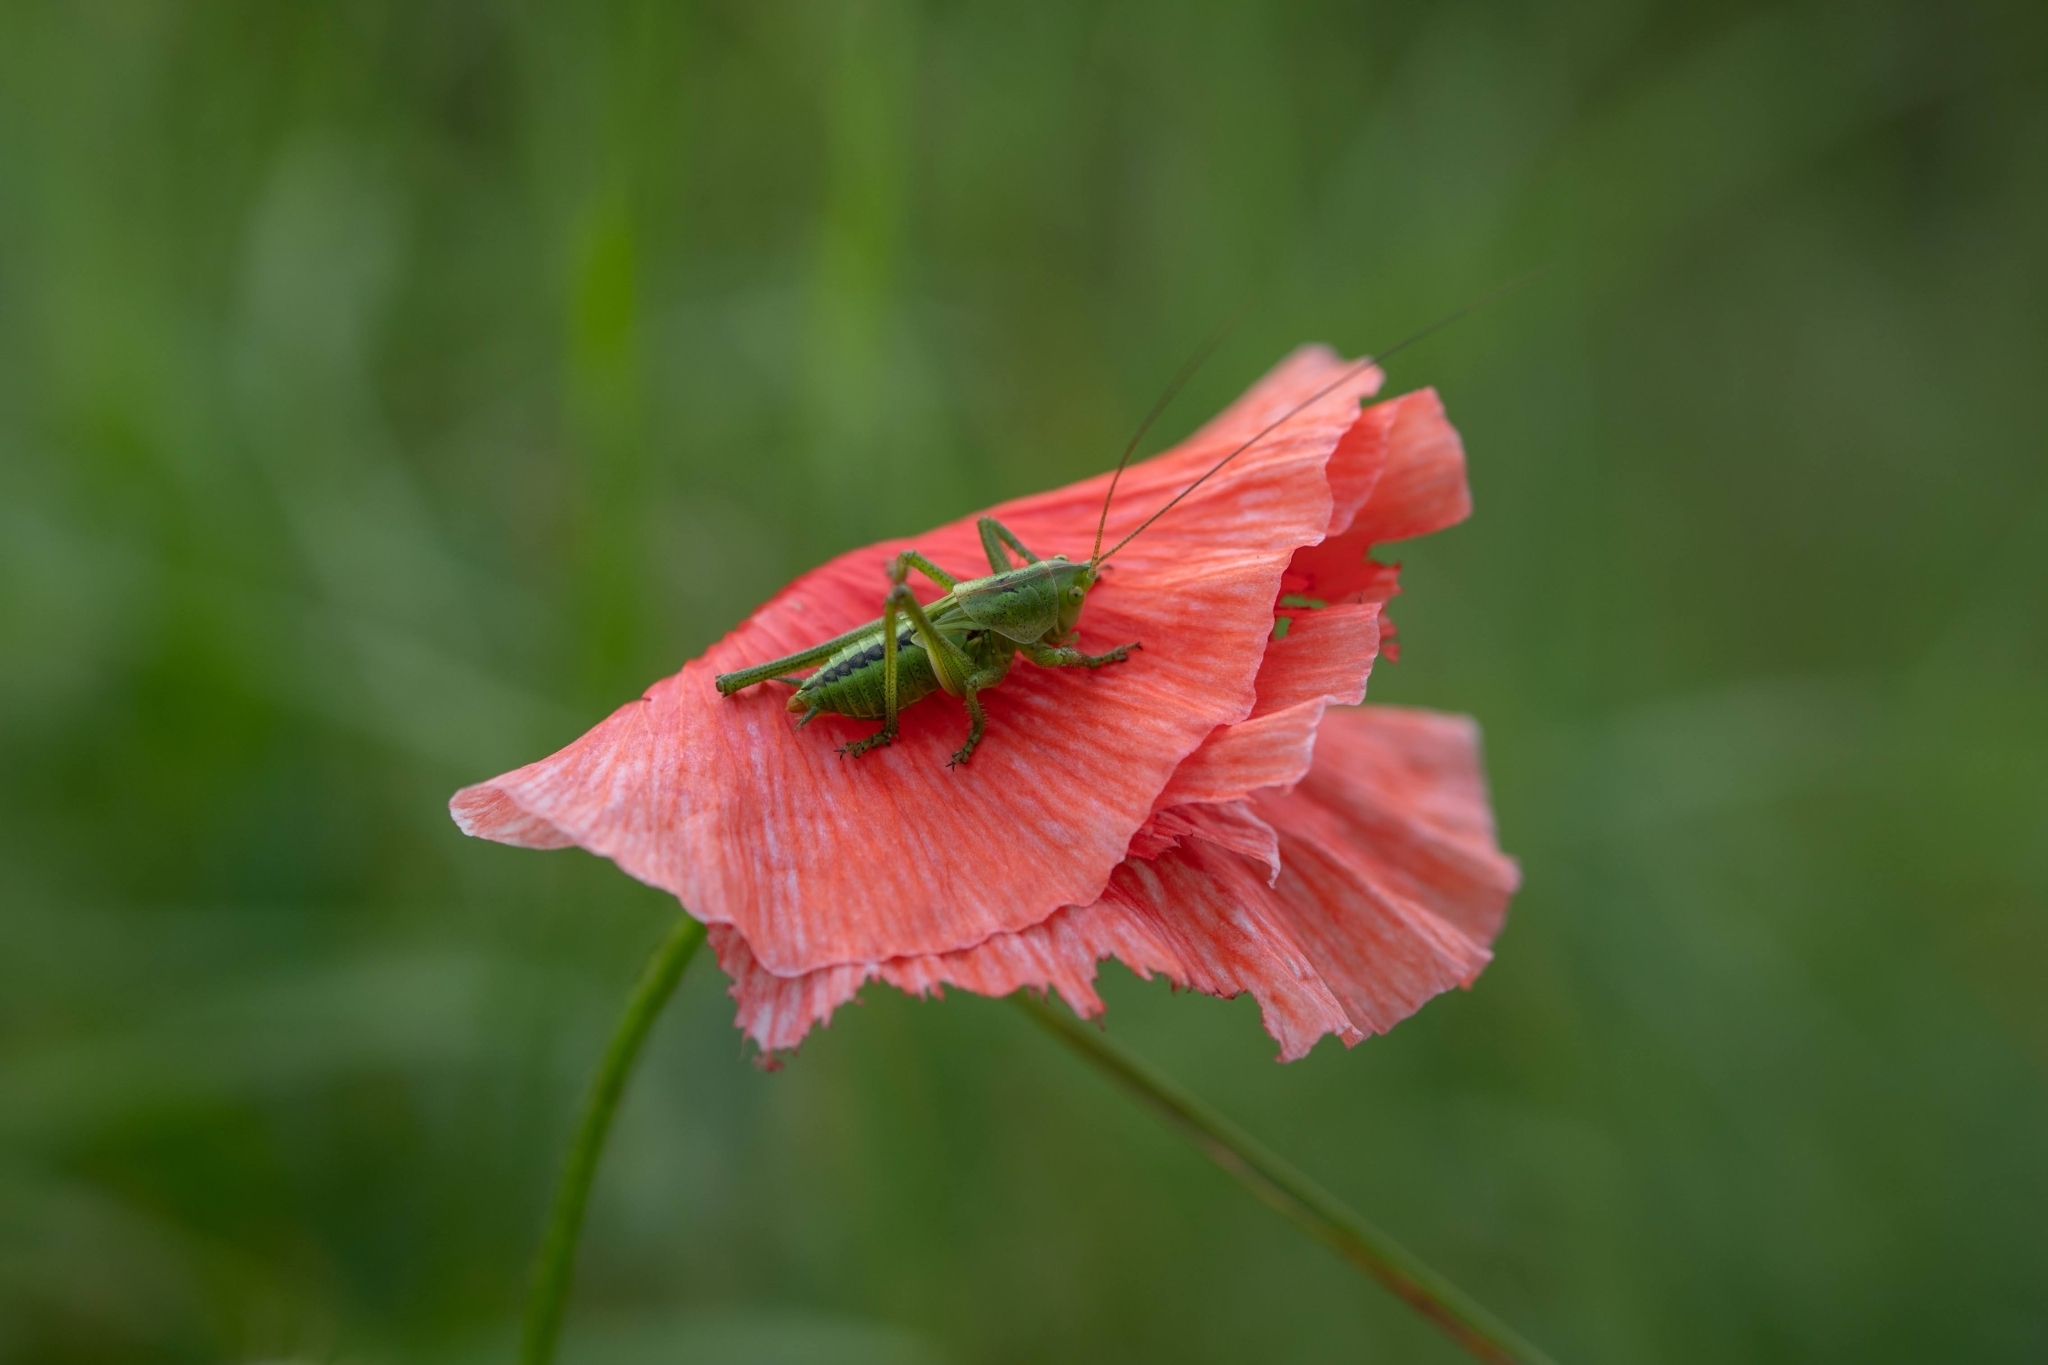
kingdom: Animalia
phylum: Arthropoda
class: Insecta
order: Orthoptera
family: Tettigoniidae
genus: Tettigonia
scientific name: Tettigonia viridissima
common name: Great green bush-cricket
